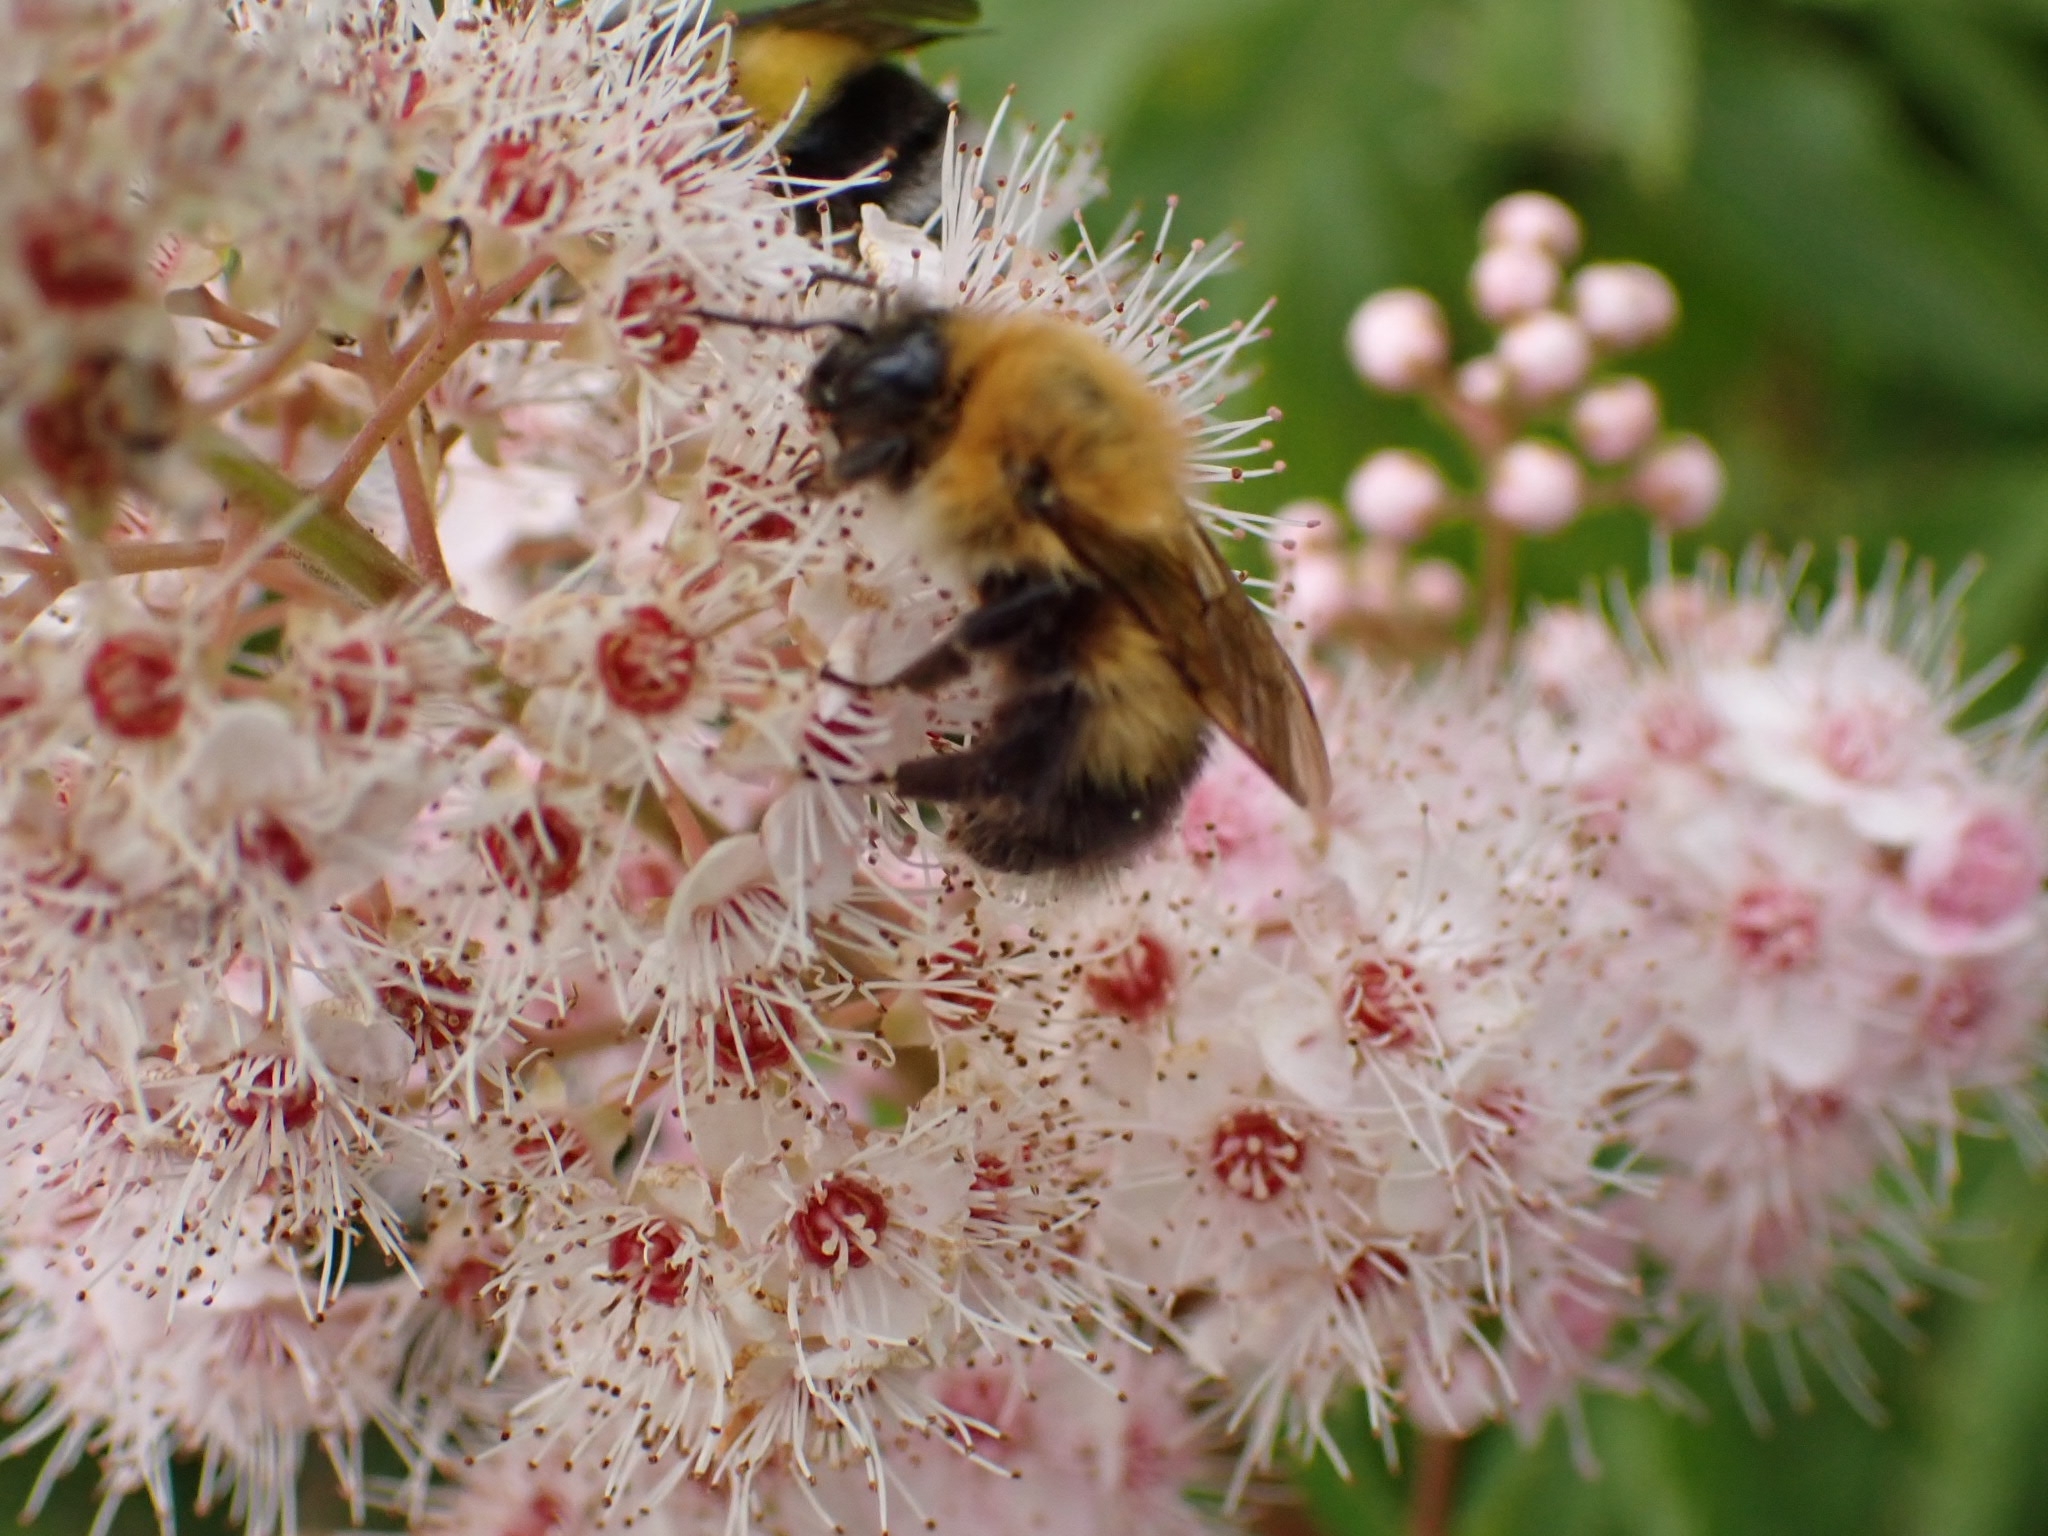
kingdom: Animalia
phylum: Arthropoda
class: Insecta
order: Hymenoptera
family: Apidae
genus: Bombus
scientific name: Bombus hypnorum
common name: New garden bumblebee
